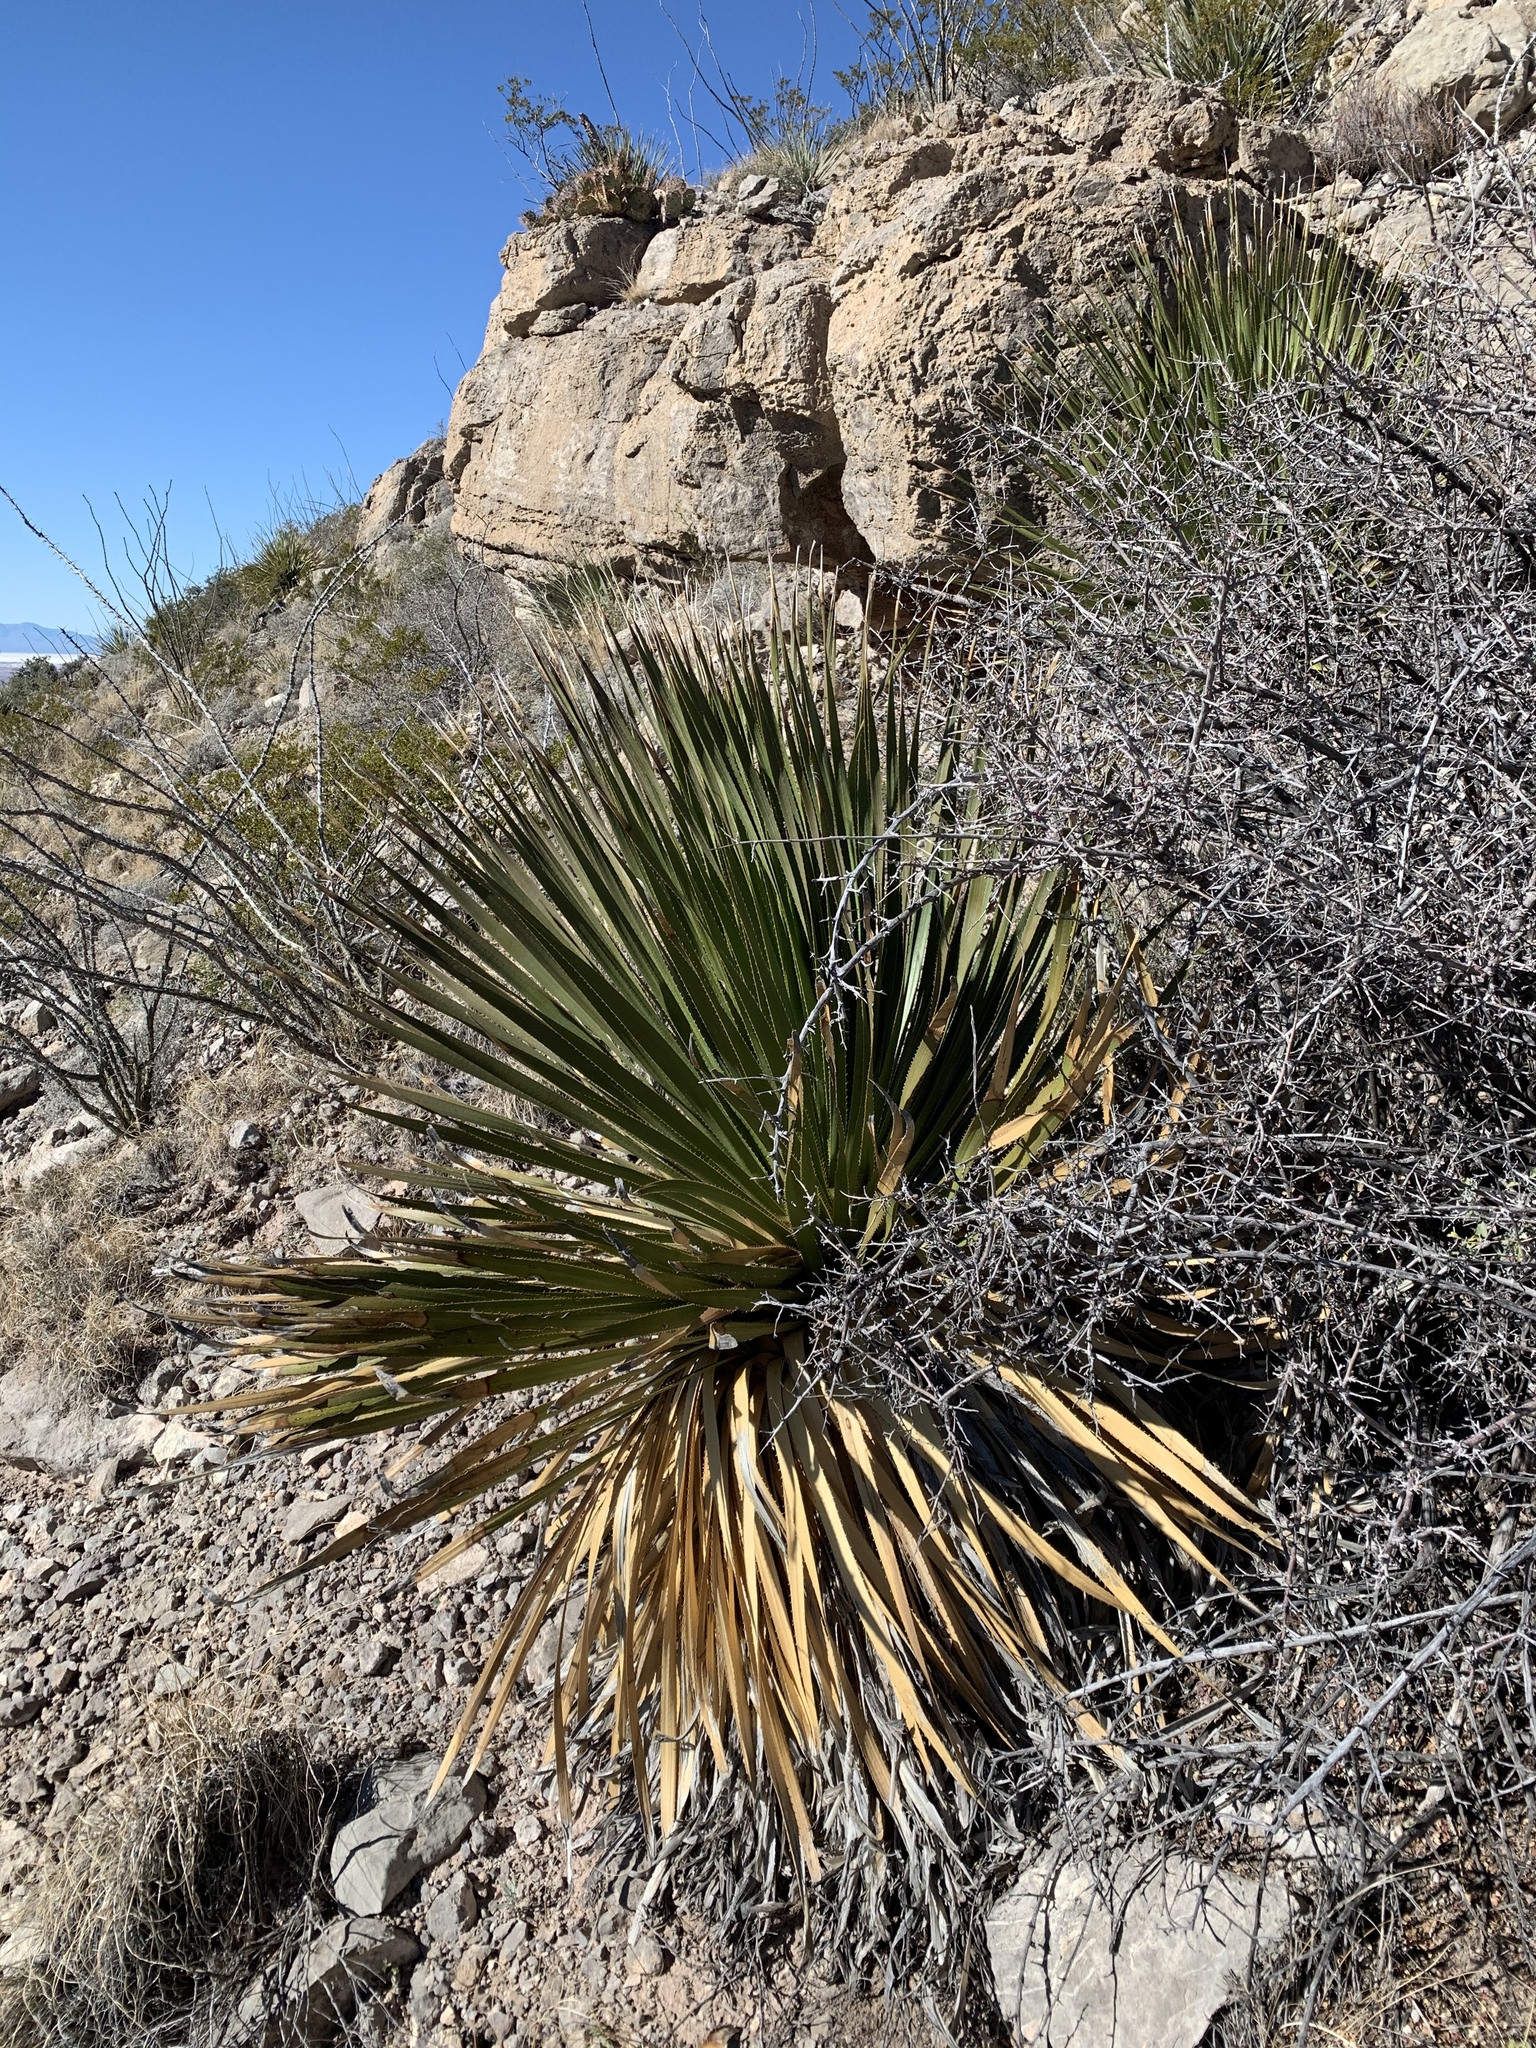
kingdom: Plantae
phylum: Tracheophyta
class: Liliopsida
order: Asparagales
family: Asparagaceae
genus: Dasylirion
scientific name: Dasylirion wheeleri
